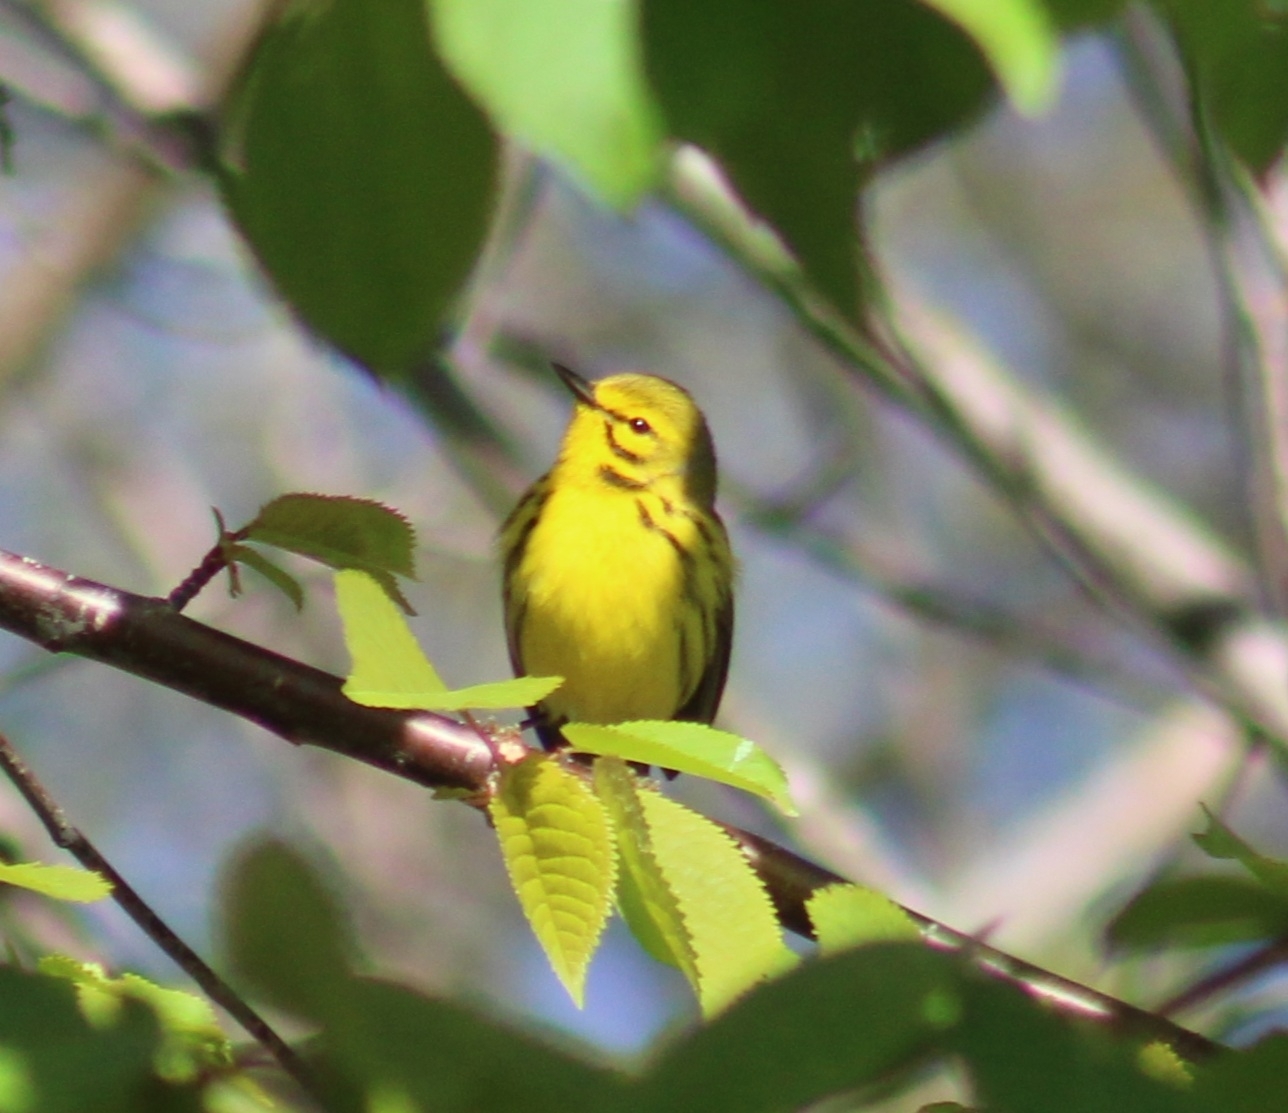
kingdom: Animalia
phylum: Chordata
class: Aves
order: Passeriformes
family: Parulidae
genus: Setophaga
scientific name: Setophaga discolor
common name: Prairie warbler
